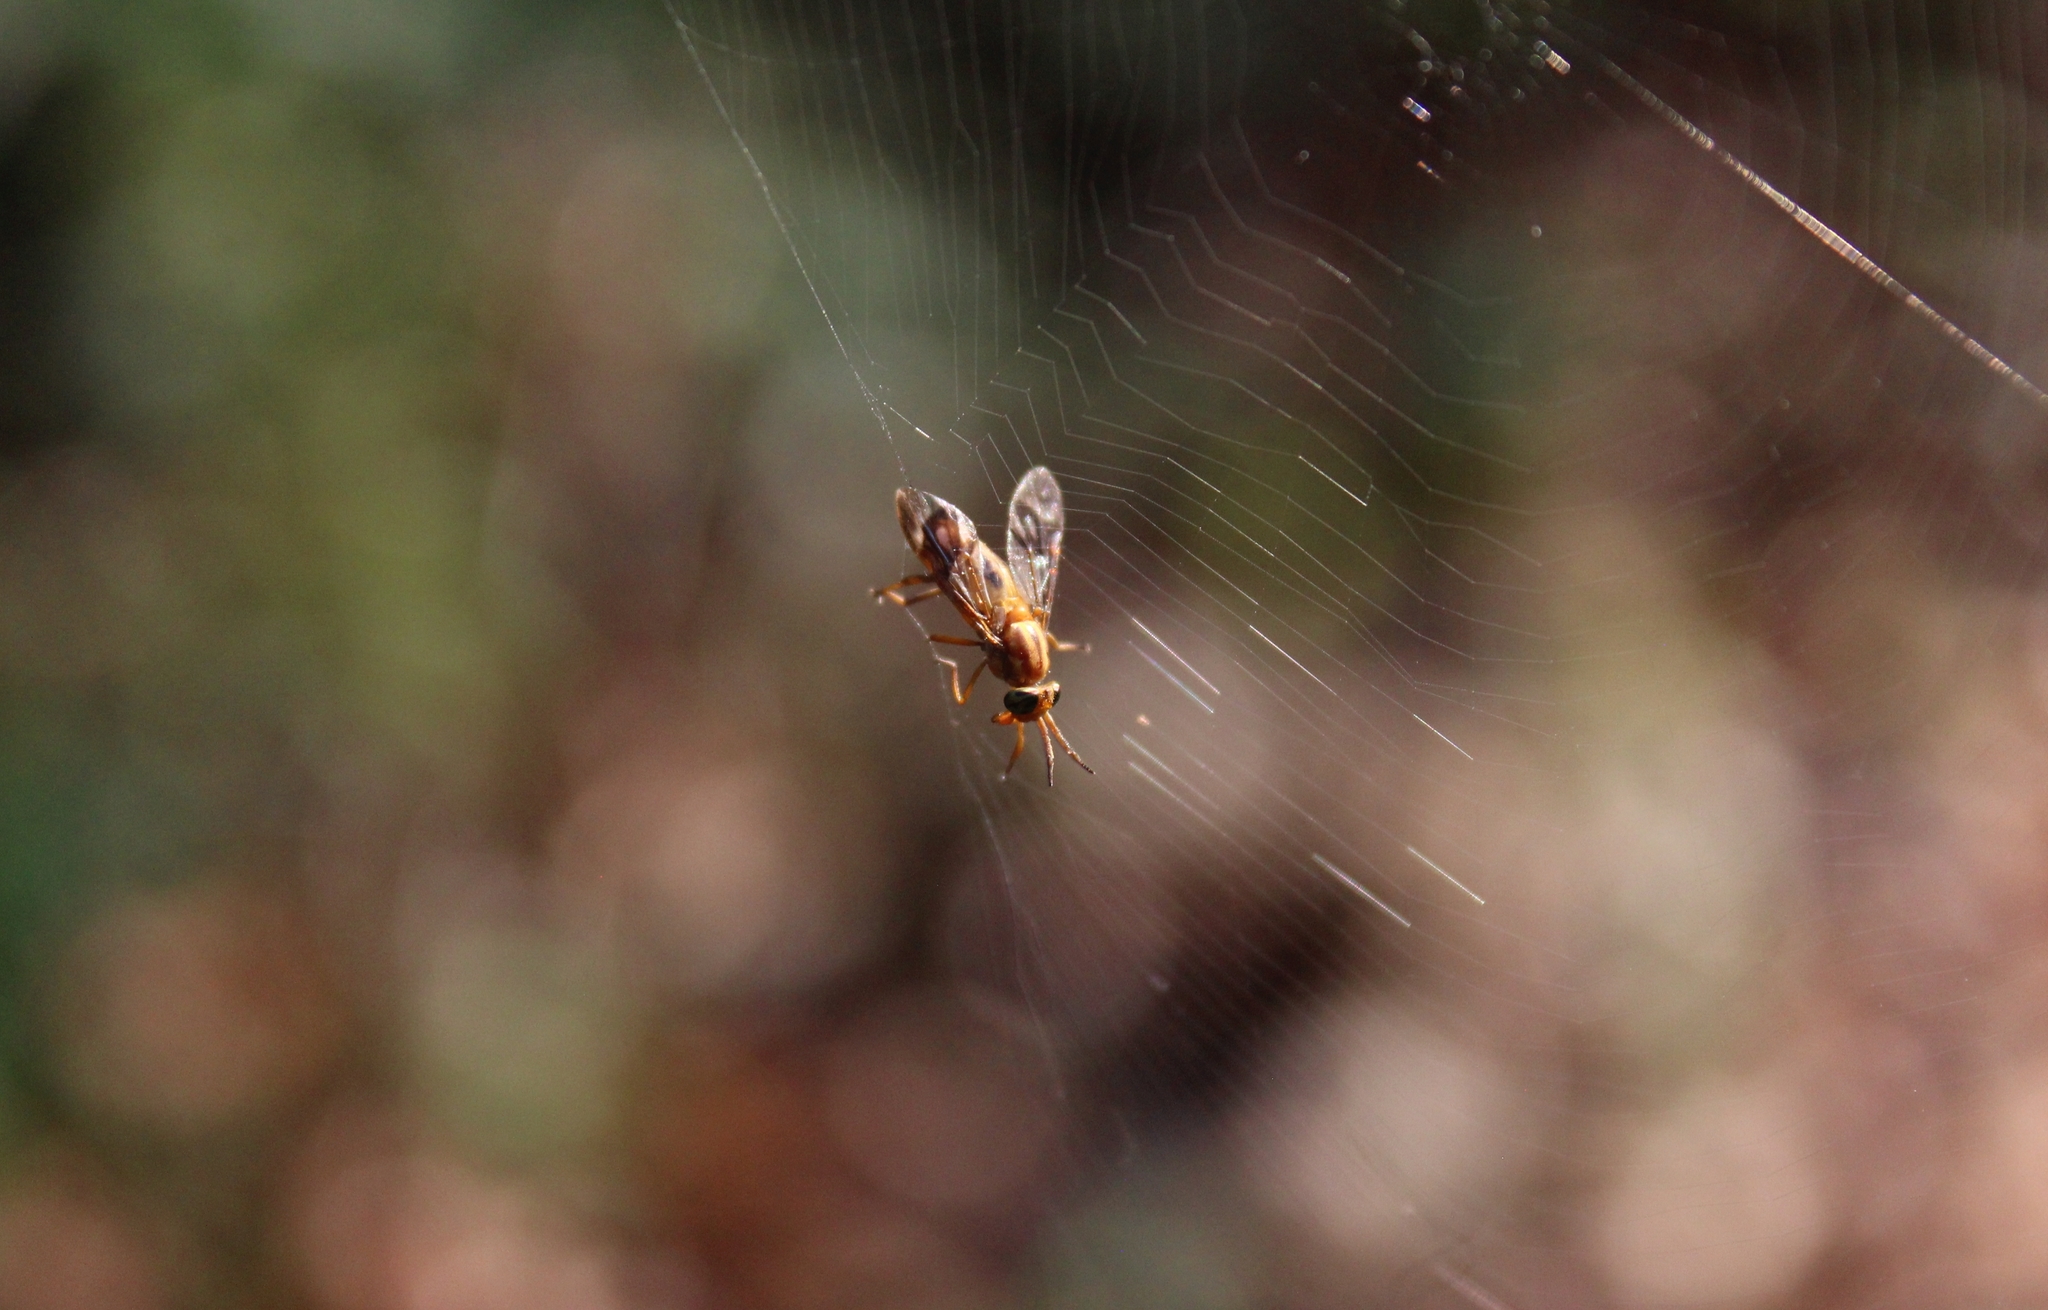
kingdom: Animalia
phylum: Arthropoda
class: Insecta
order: Diptera
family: Tabanidae
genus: Diachlorus
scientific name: Diachlorus ferrugatus
